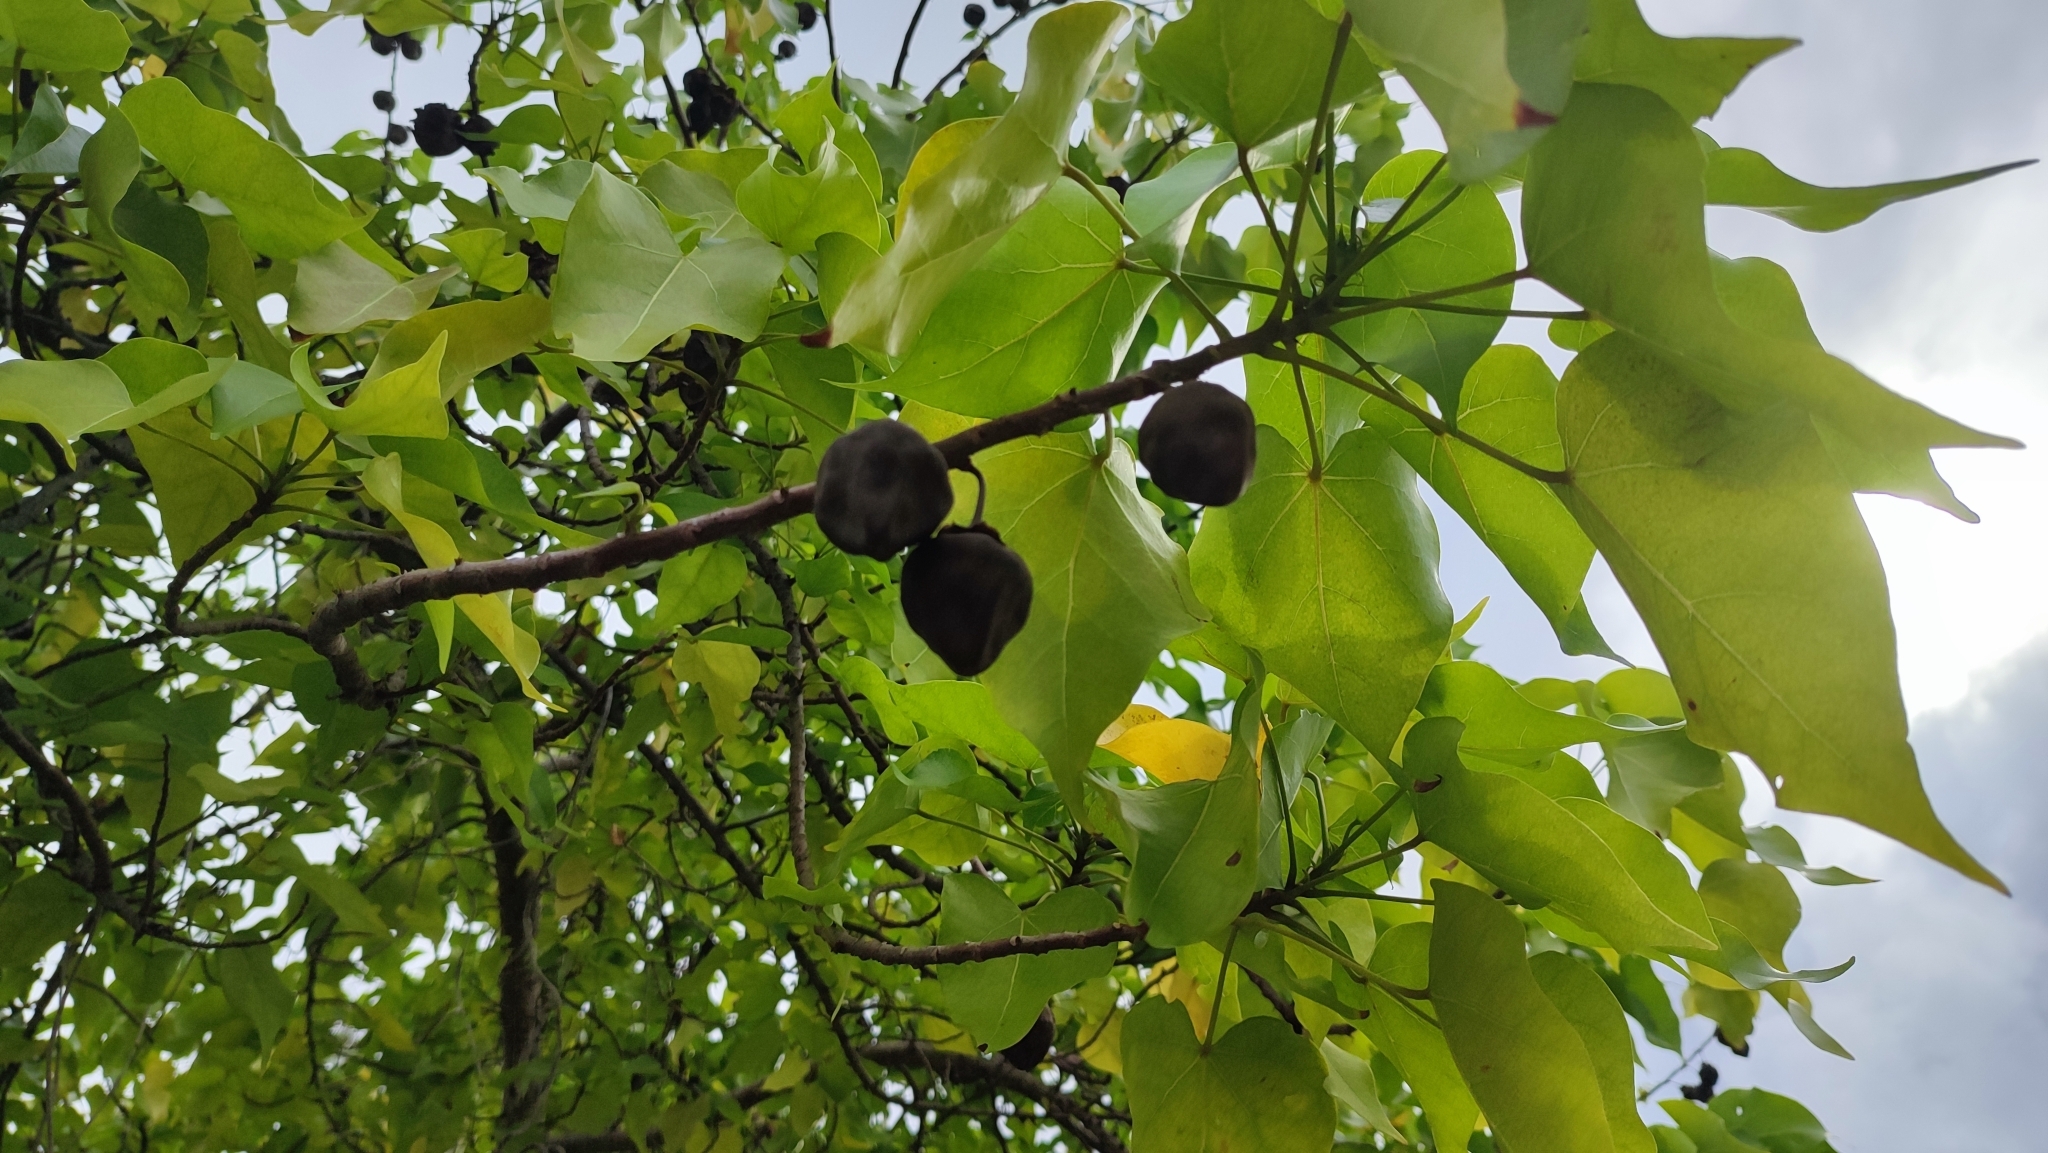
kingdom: Plantae
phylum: Tracheophyta
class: Magnoliopsida
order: Malvales
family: Malvaceae
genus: Thespesia
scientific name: Thespesia populnea
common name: Seaside mahoe
